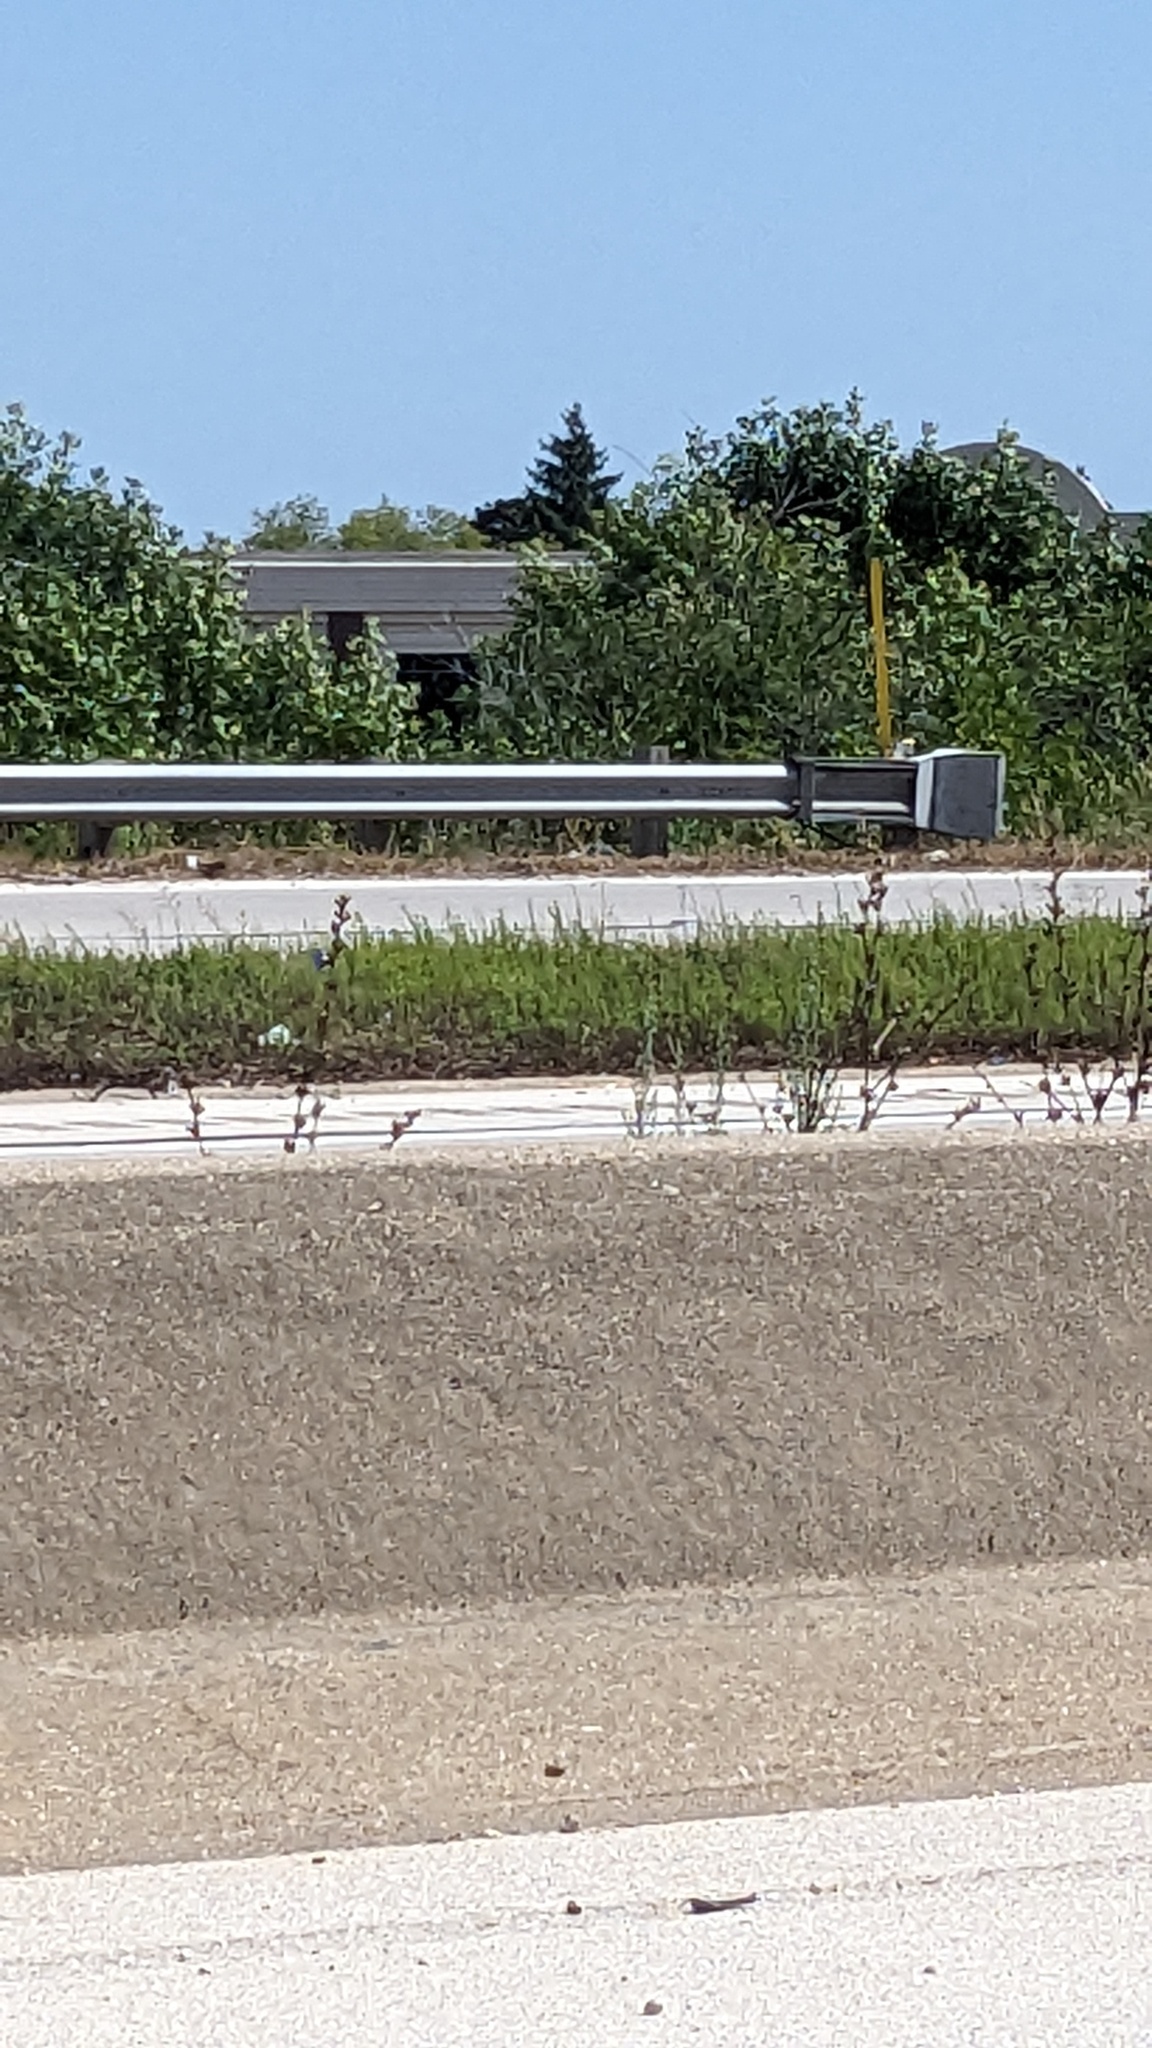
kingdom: Plantae
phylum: Tracheophyta
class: Magnoliopsida
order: Asterales
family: Asteraceae
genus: Cichorium
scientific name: Cichorium intybus
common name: Chicory
